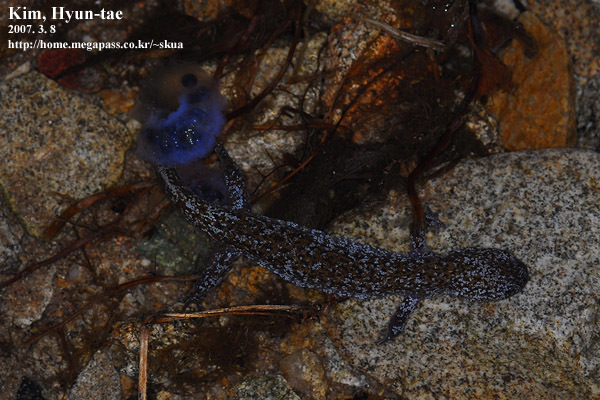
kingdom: Animalia
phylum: Chordata
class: Amphibia
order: Caudata
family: Hynobiidae
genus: Hynobius
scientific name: Hynobius leechii
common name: Gensan salamander
